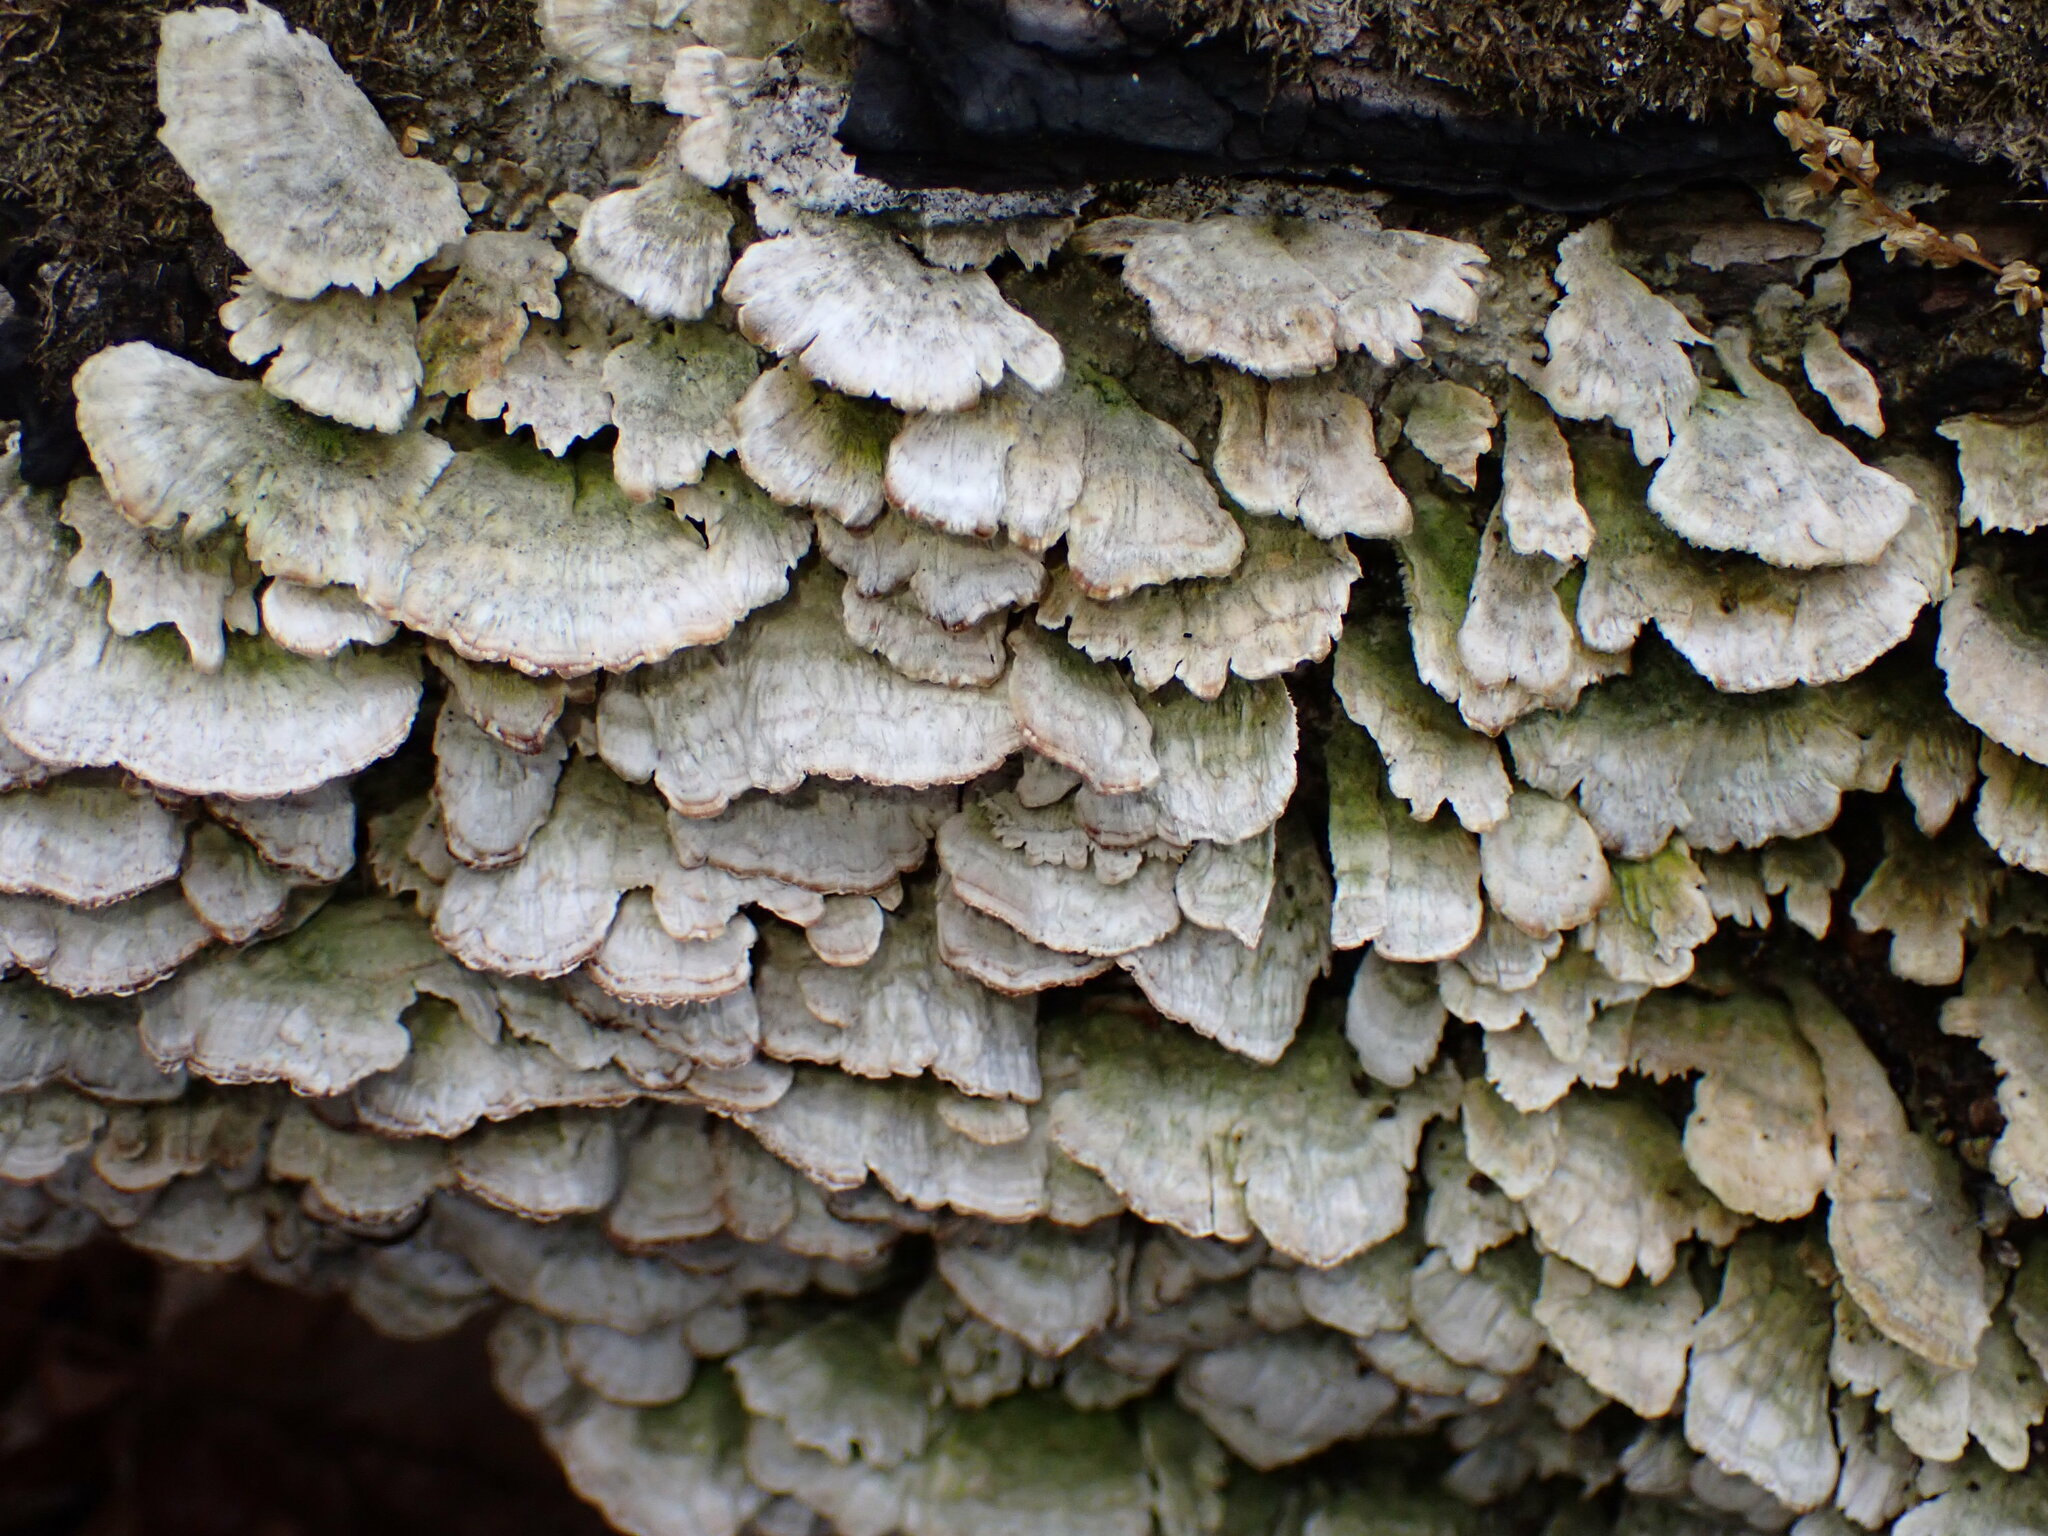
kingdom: Fungi
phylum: Basidiomycota
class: Agaricomycetes
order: Polyporales
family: Polyporaceae
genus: Trametes
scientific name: Trametes versicolor
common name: Turkeytail
